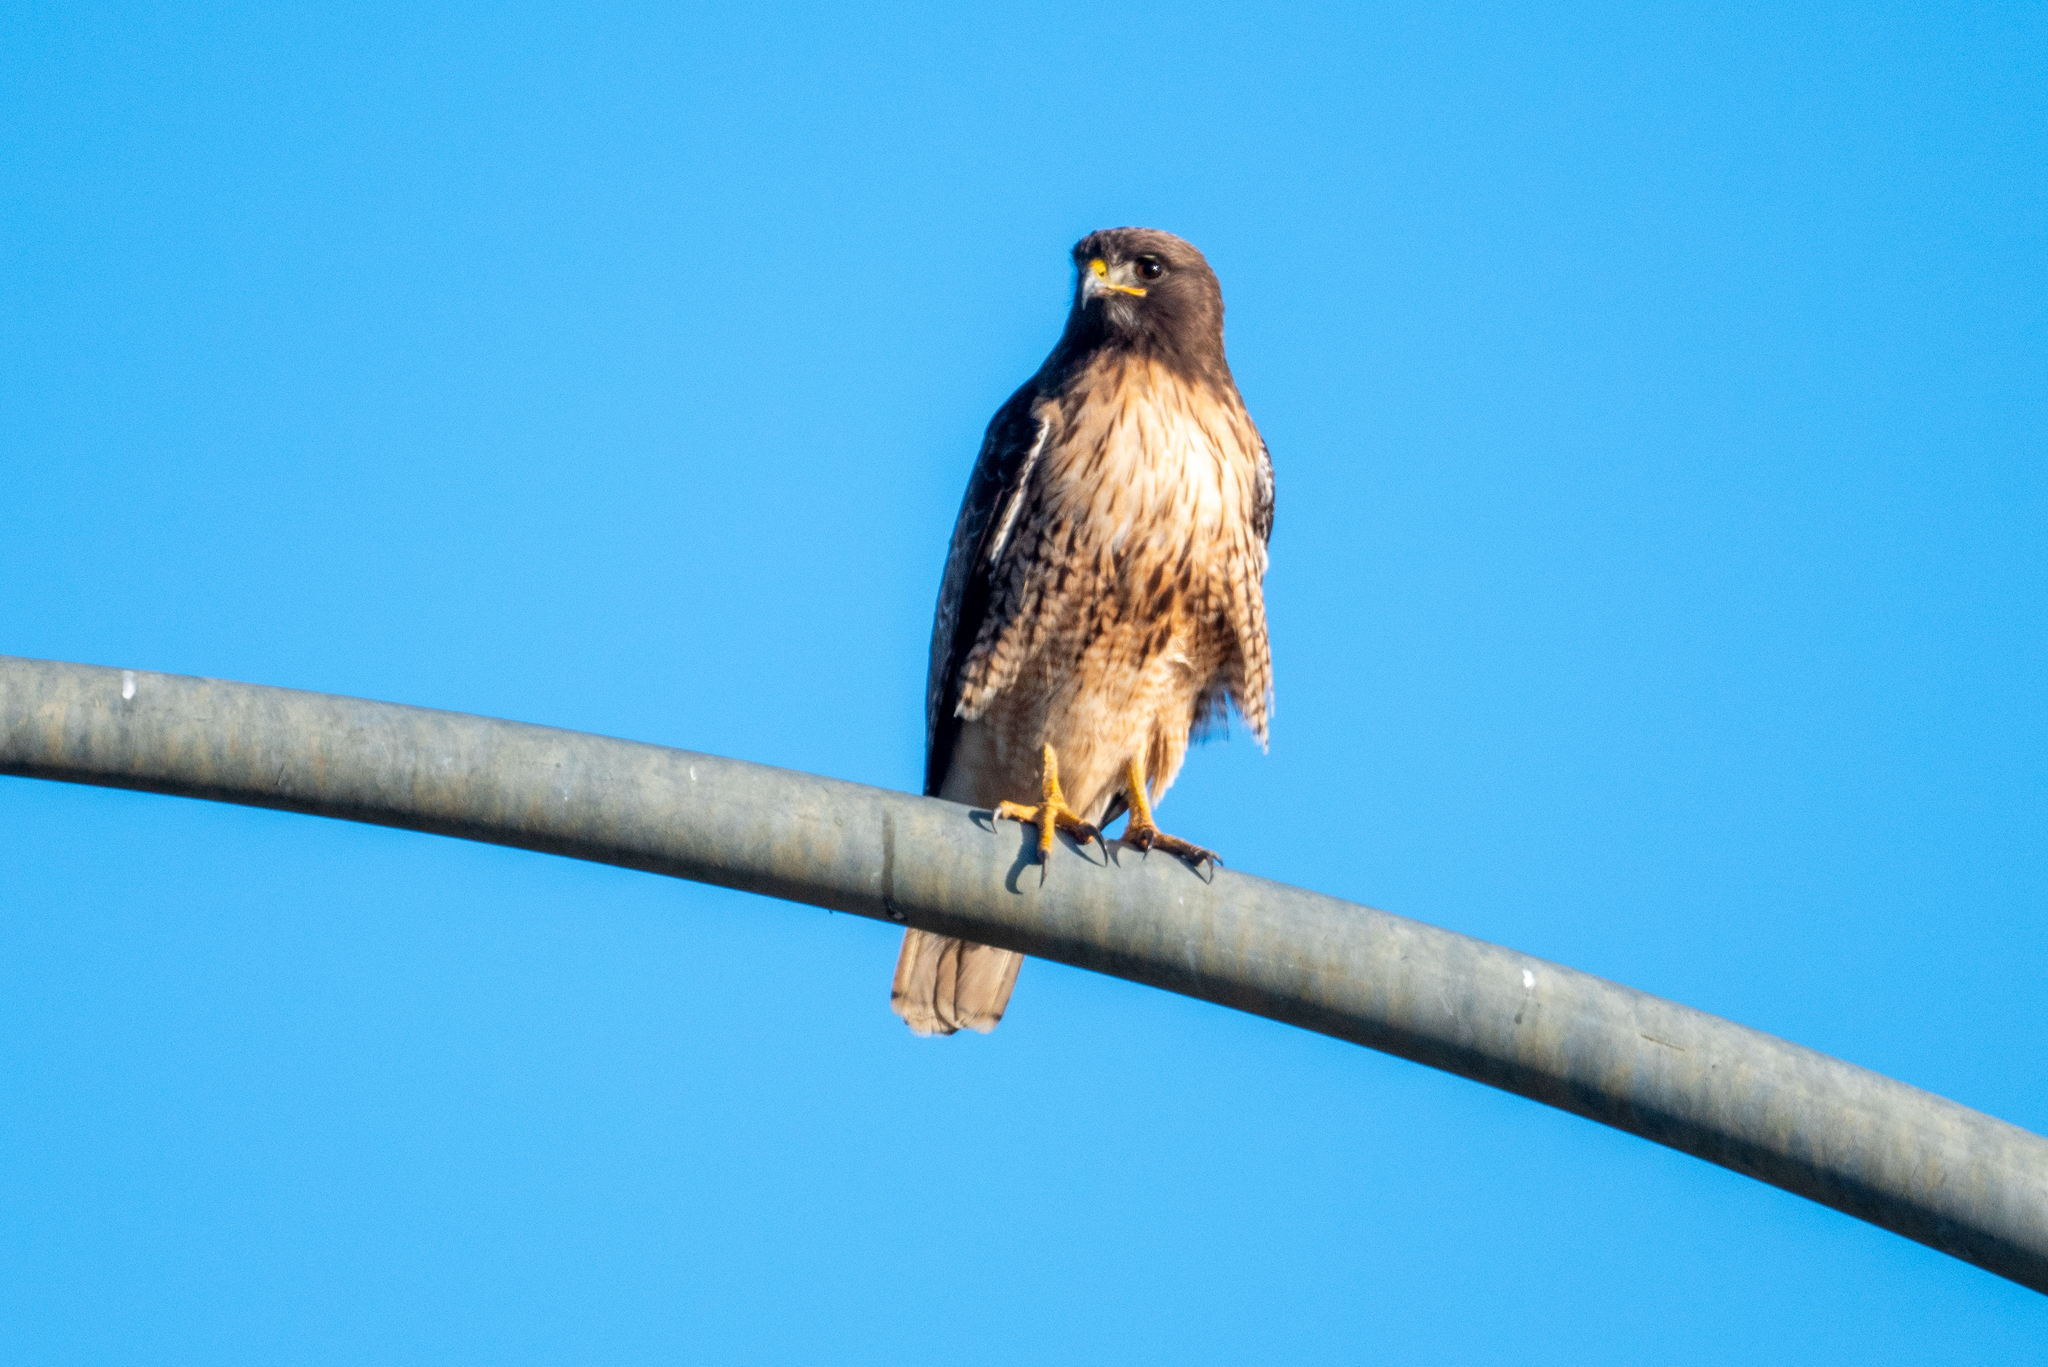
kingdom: Animalia
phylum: Chordata
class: Aves
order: Accipitriformes
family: Accipitridae
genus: Buteo
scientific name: Buteo jamaicensis
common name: Red-tailed hawk
